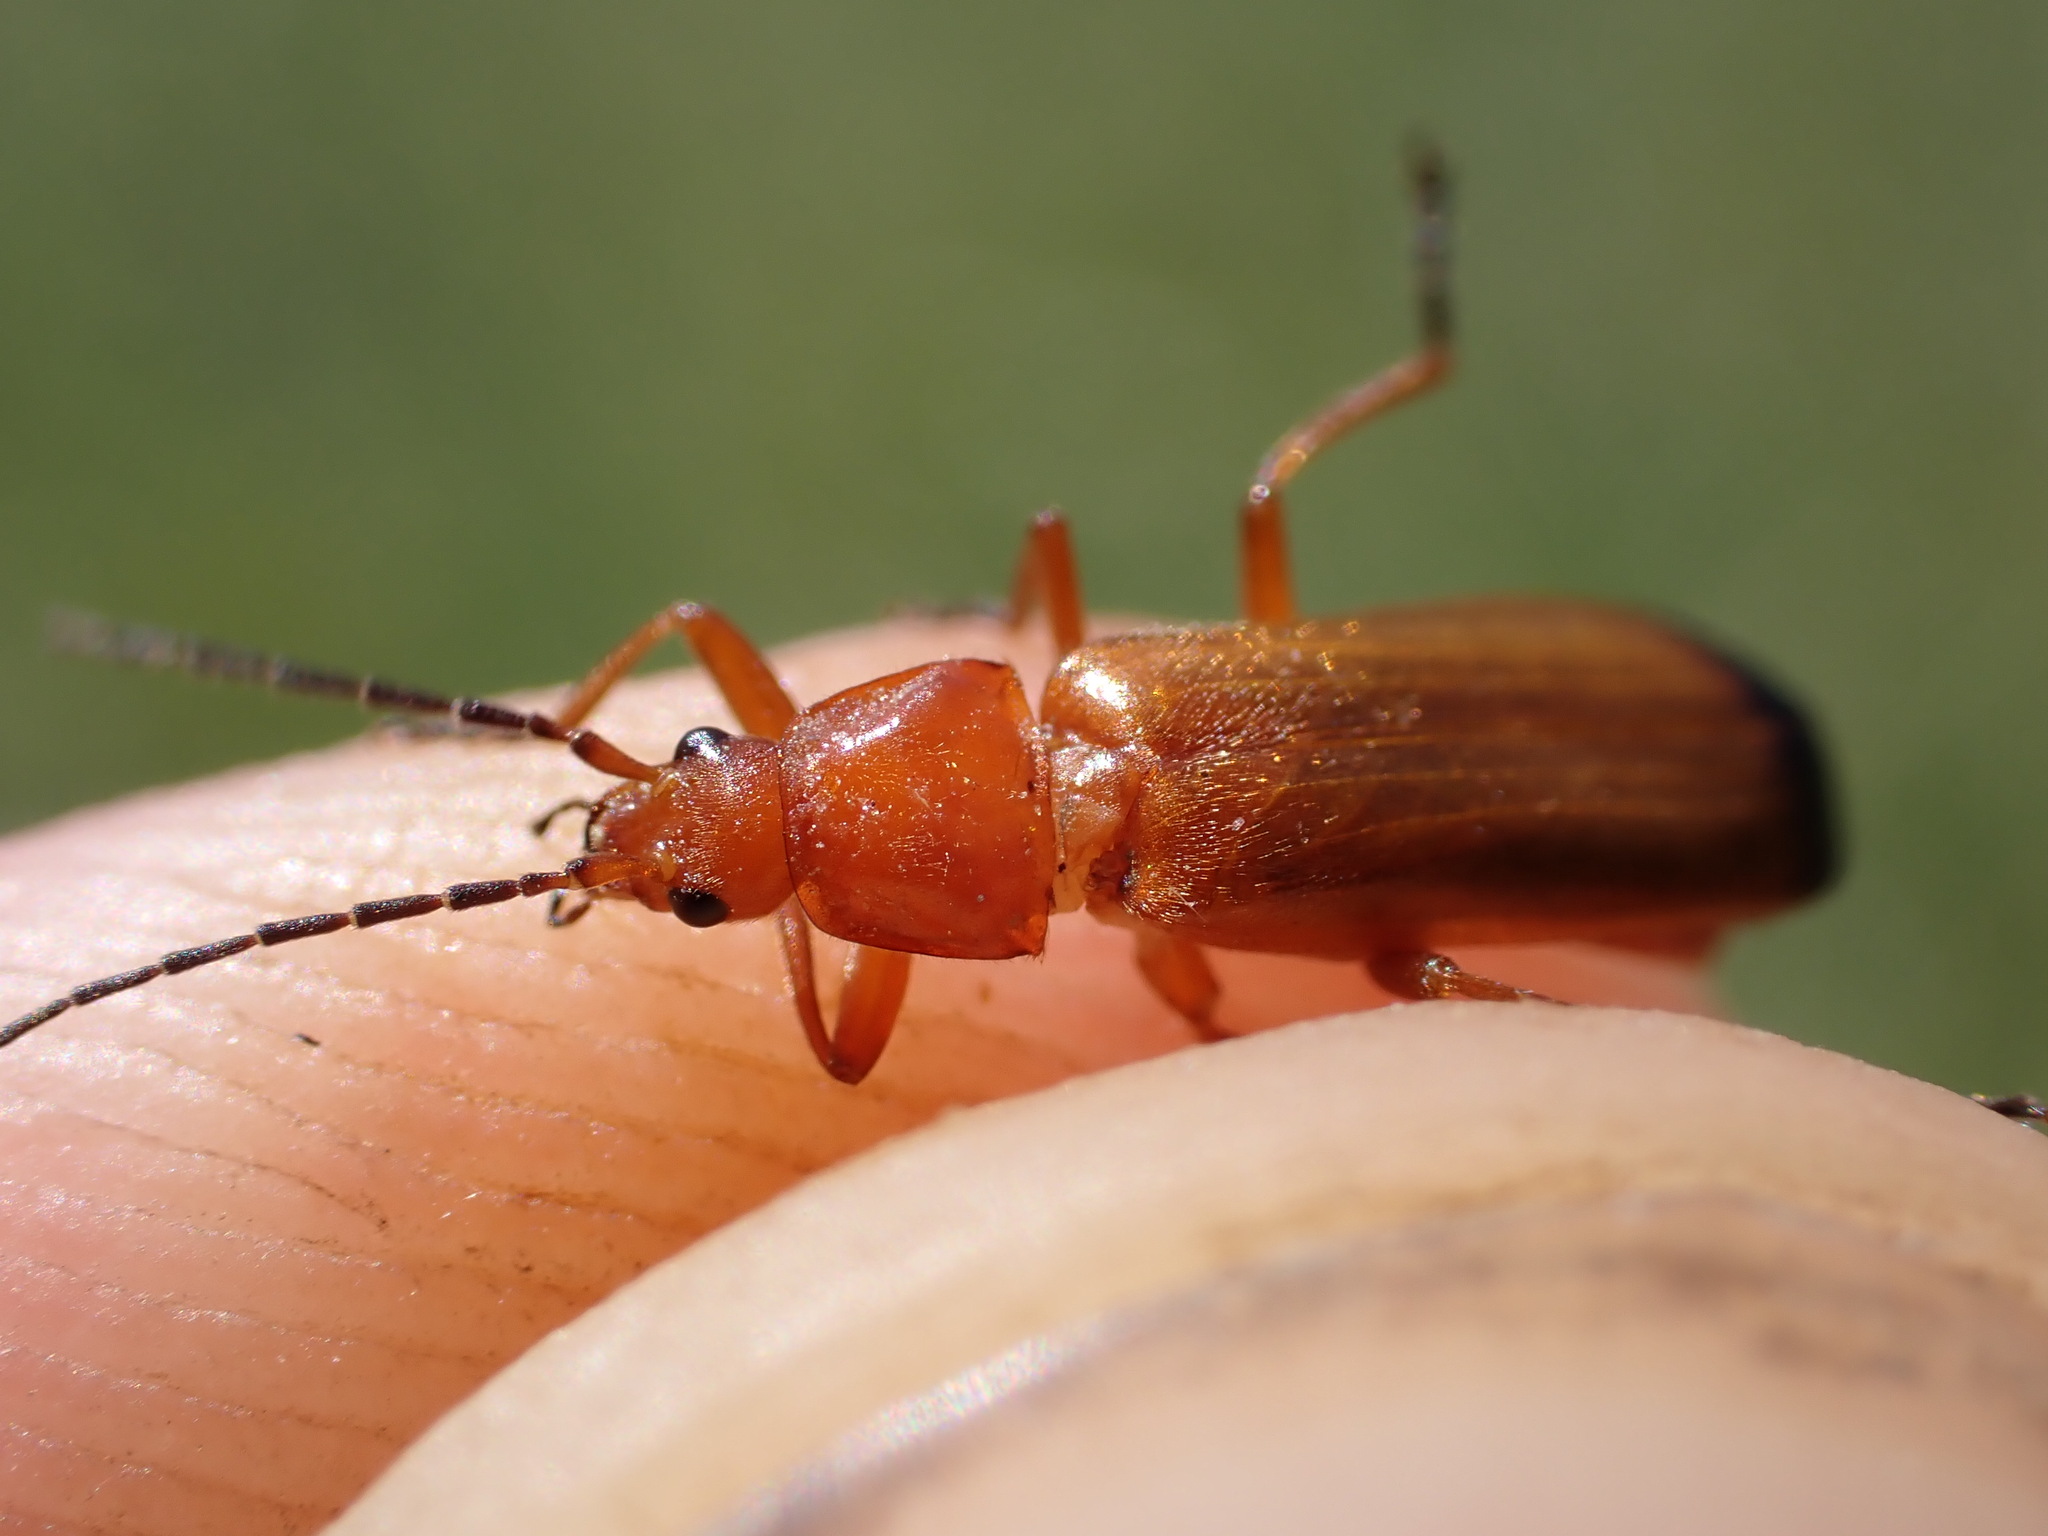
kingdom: Animalia
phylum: Arthropoda
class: Insecta
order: Coleoptera
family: Cantharidae
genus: Rhagonycha
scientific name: Rhagonycha fulva
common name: Common red soldier beetle
